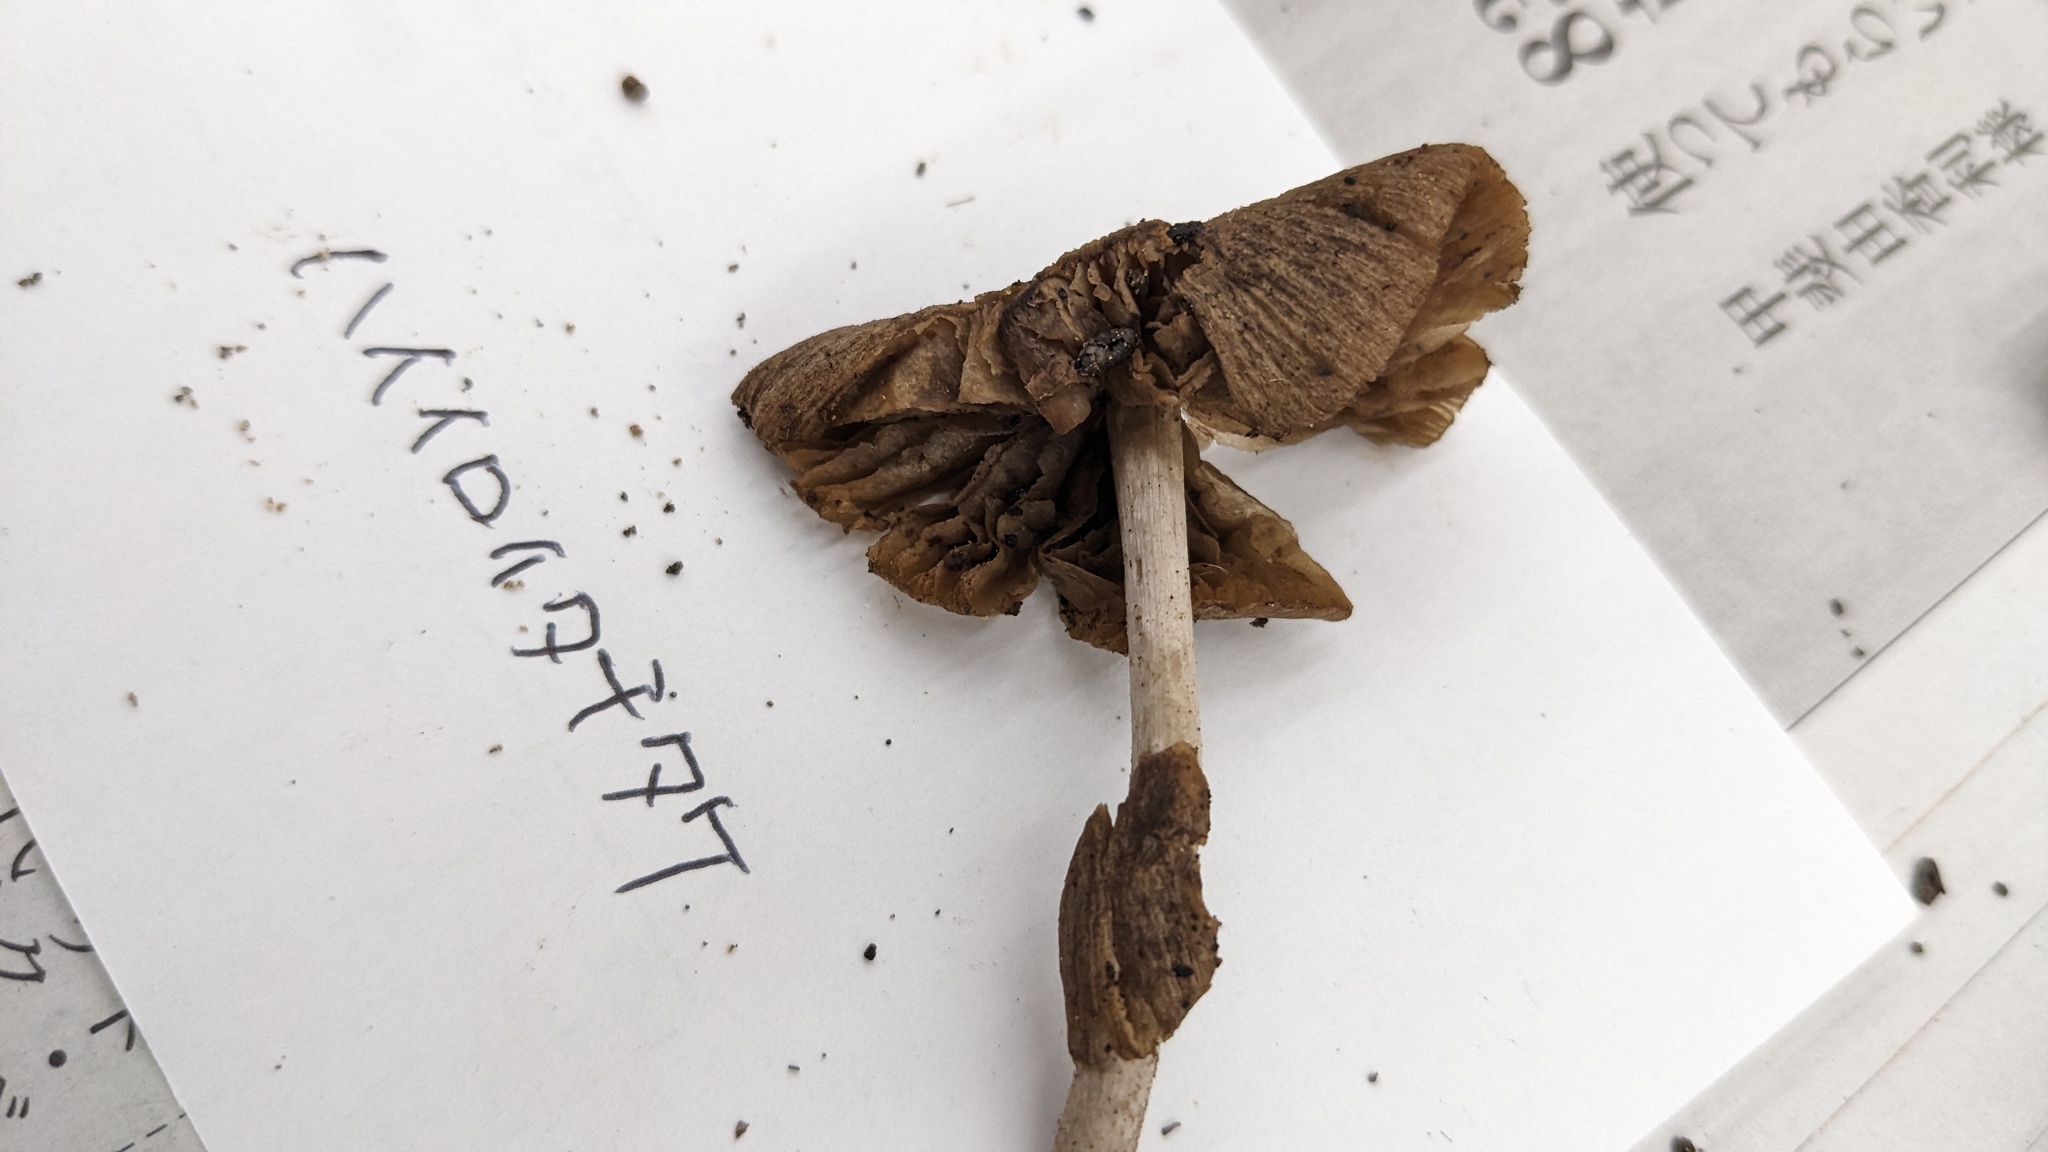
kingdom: Fungi
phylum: Basidiomycota
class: Agaricomycetes
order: Agaricales
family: Psathyrellaceae
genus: Coprinopsis
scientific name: Coprinopsis cineraria
